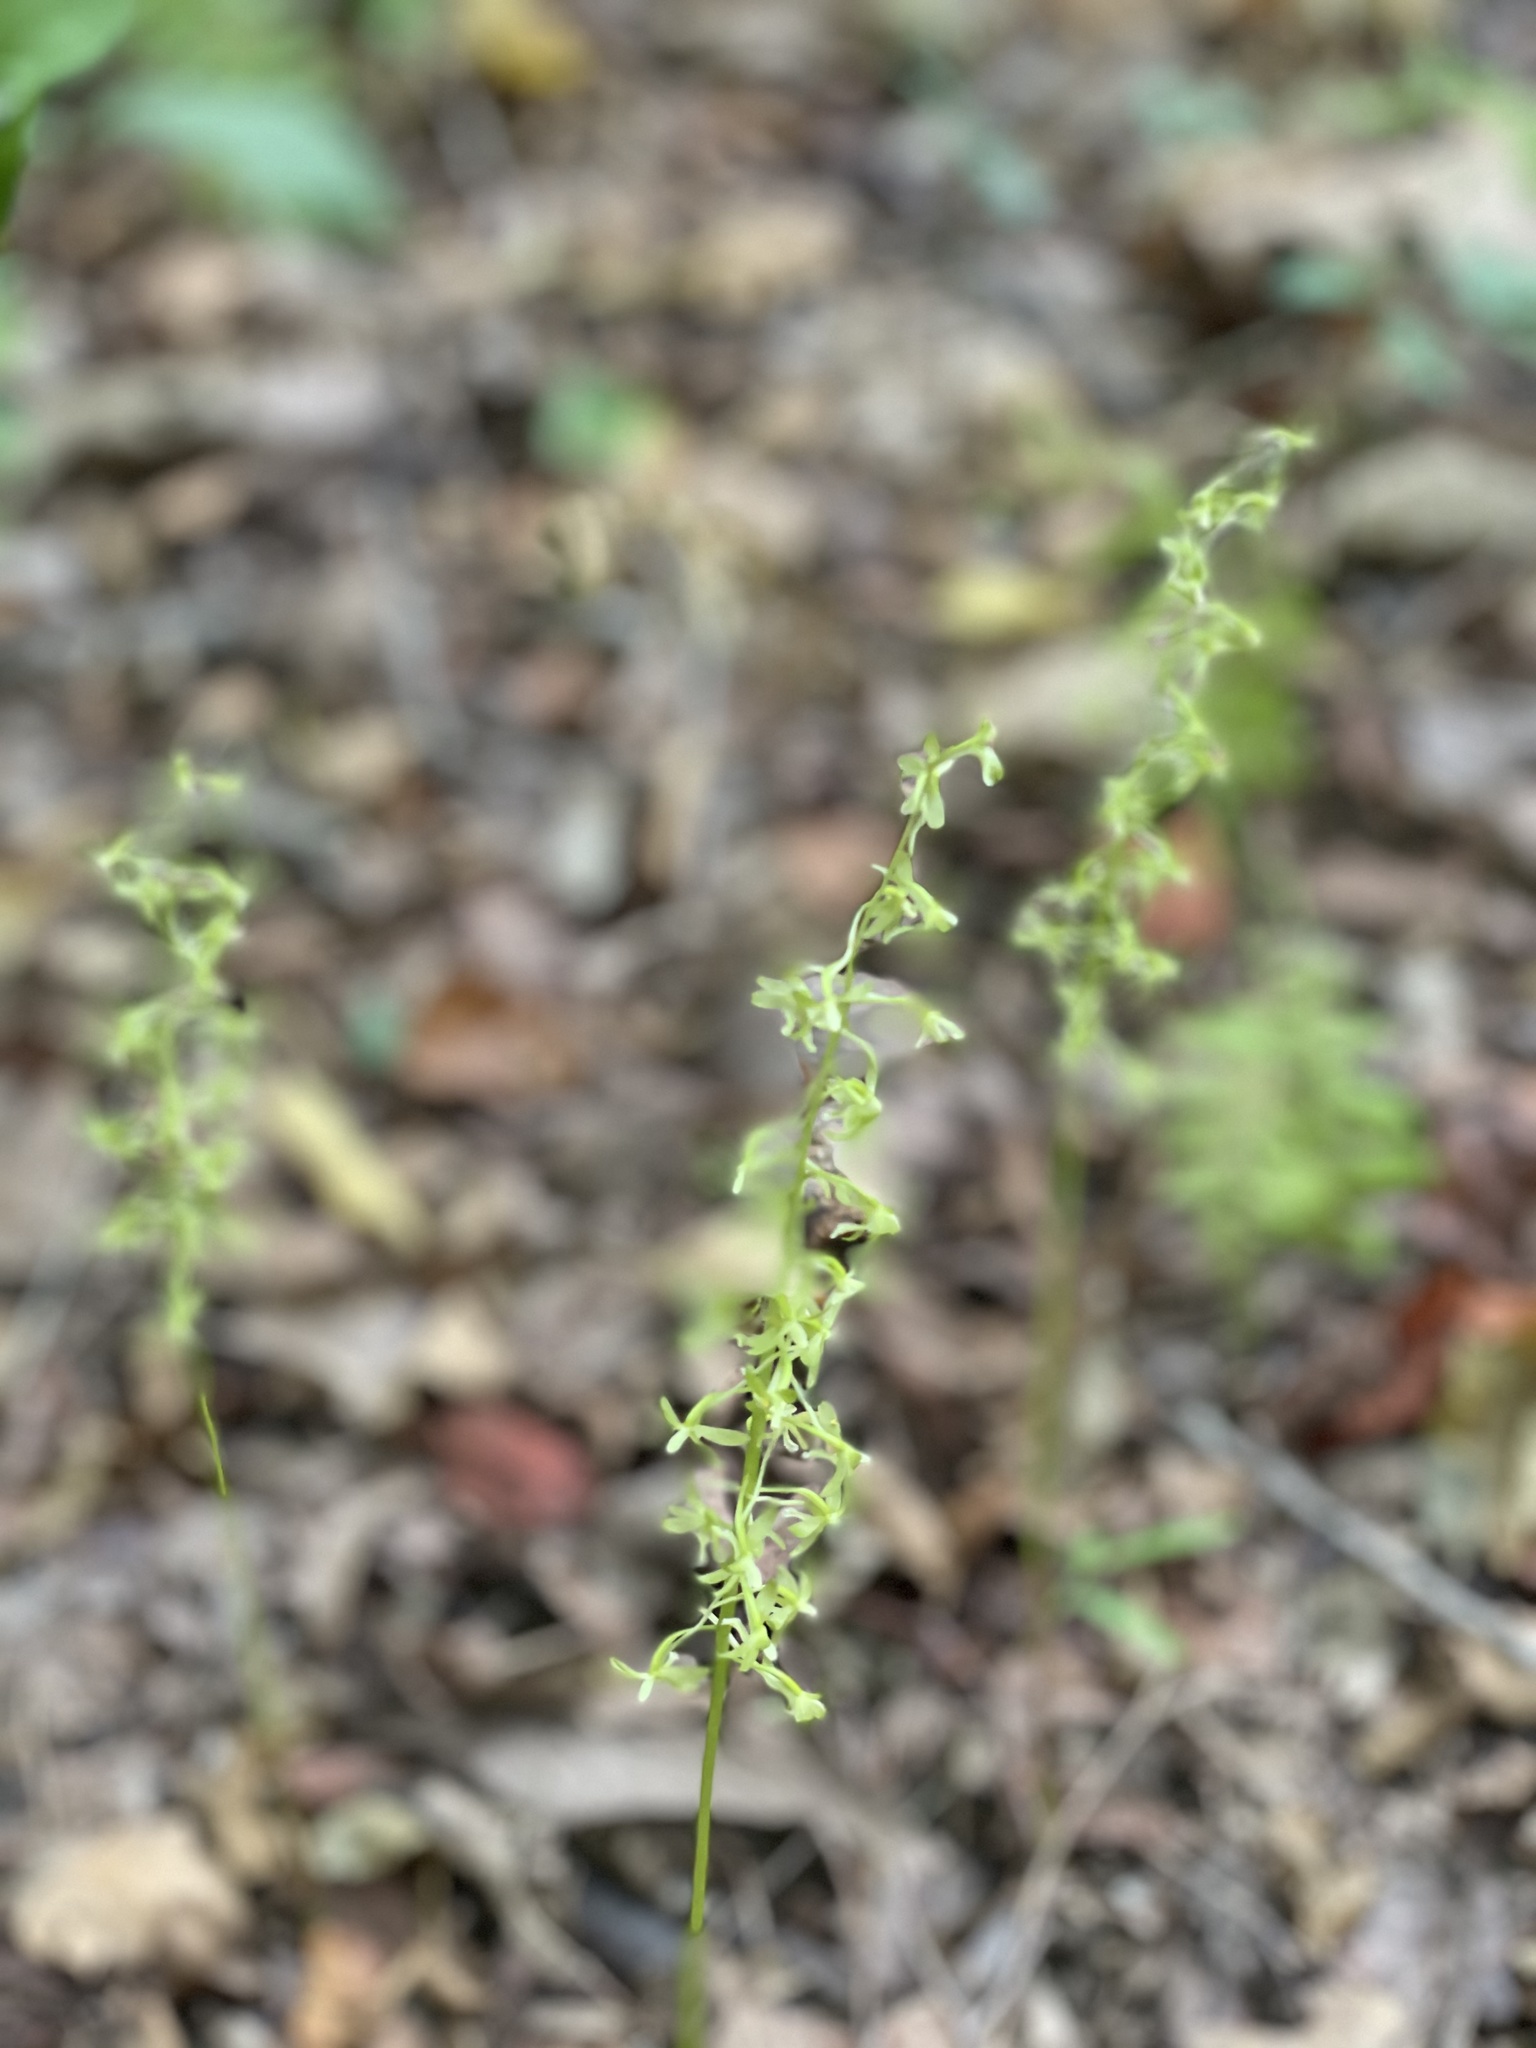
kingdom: Plantae
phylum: Tracheophyta
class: Liliopsida
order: Asparagales
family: Orchidaceae
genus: Tipularia
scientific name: Tipularia discolor
